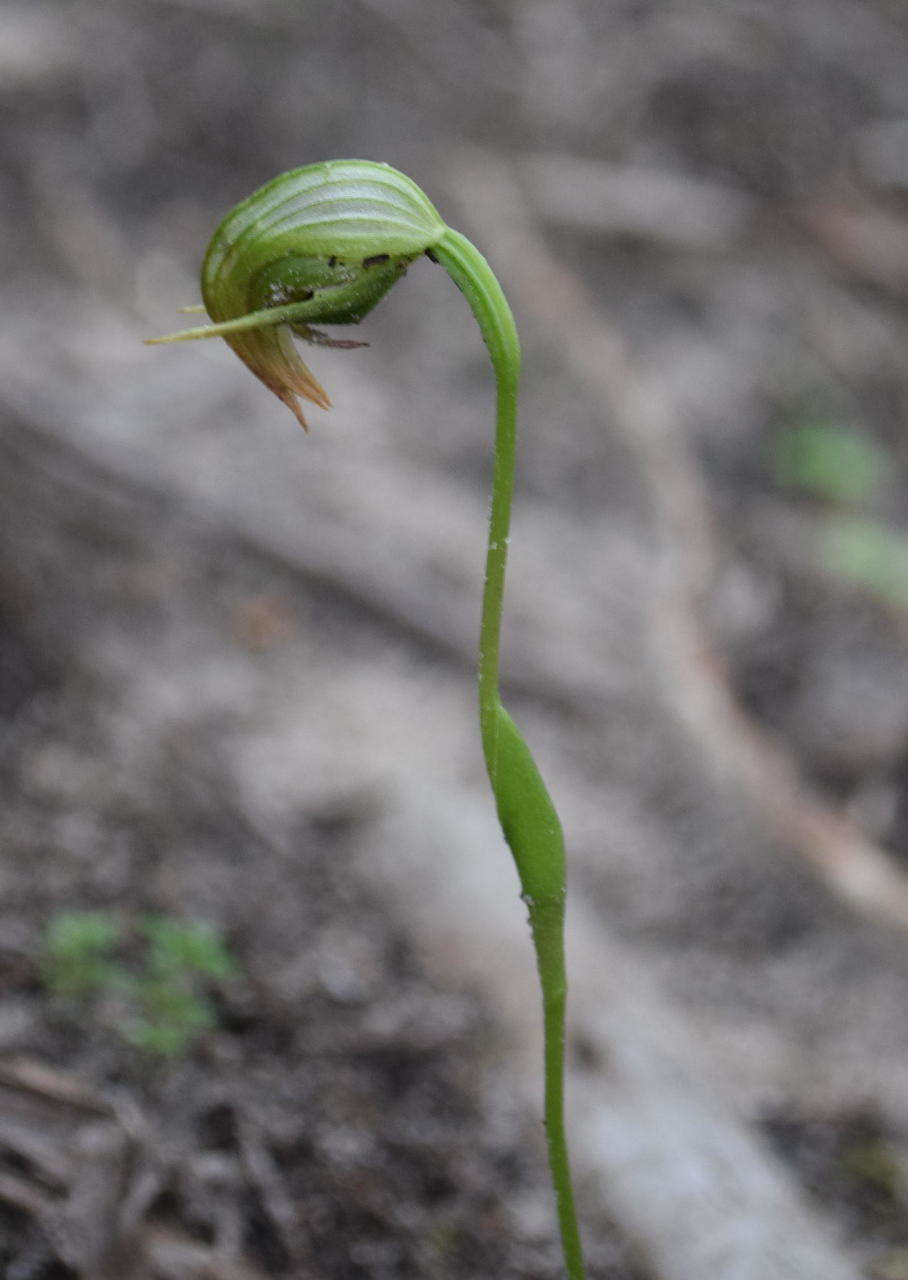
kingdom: Plantae
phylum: Tracheophyta
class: Liliopsida
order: Asparagales
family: Orchidaceae
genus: Pterostylis
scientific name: Pterostylis nutans
